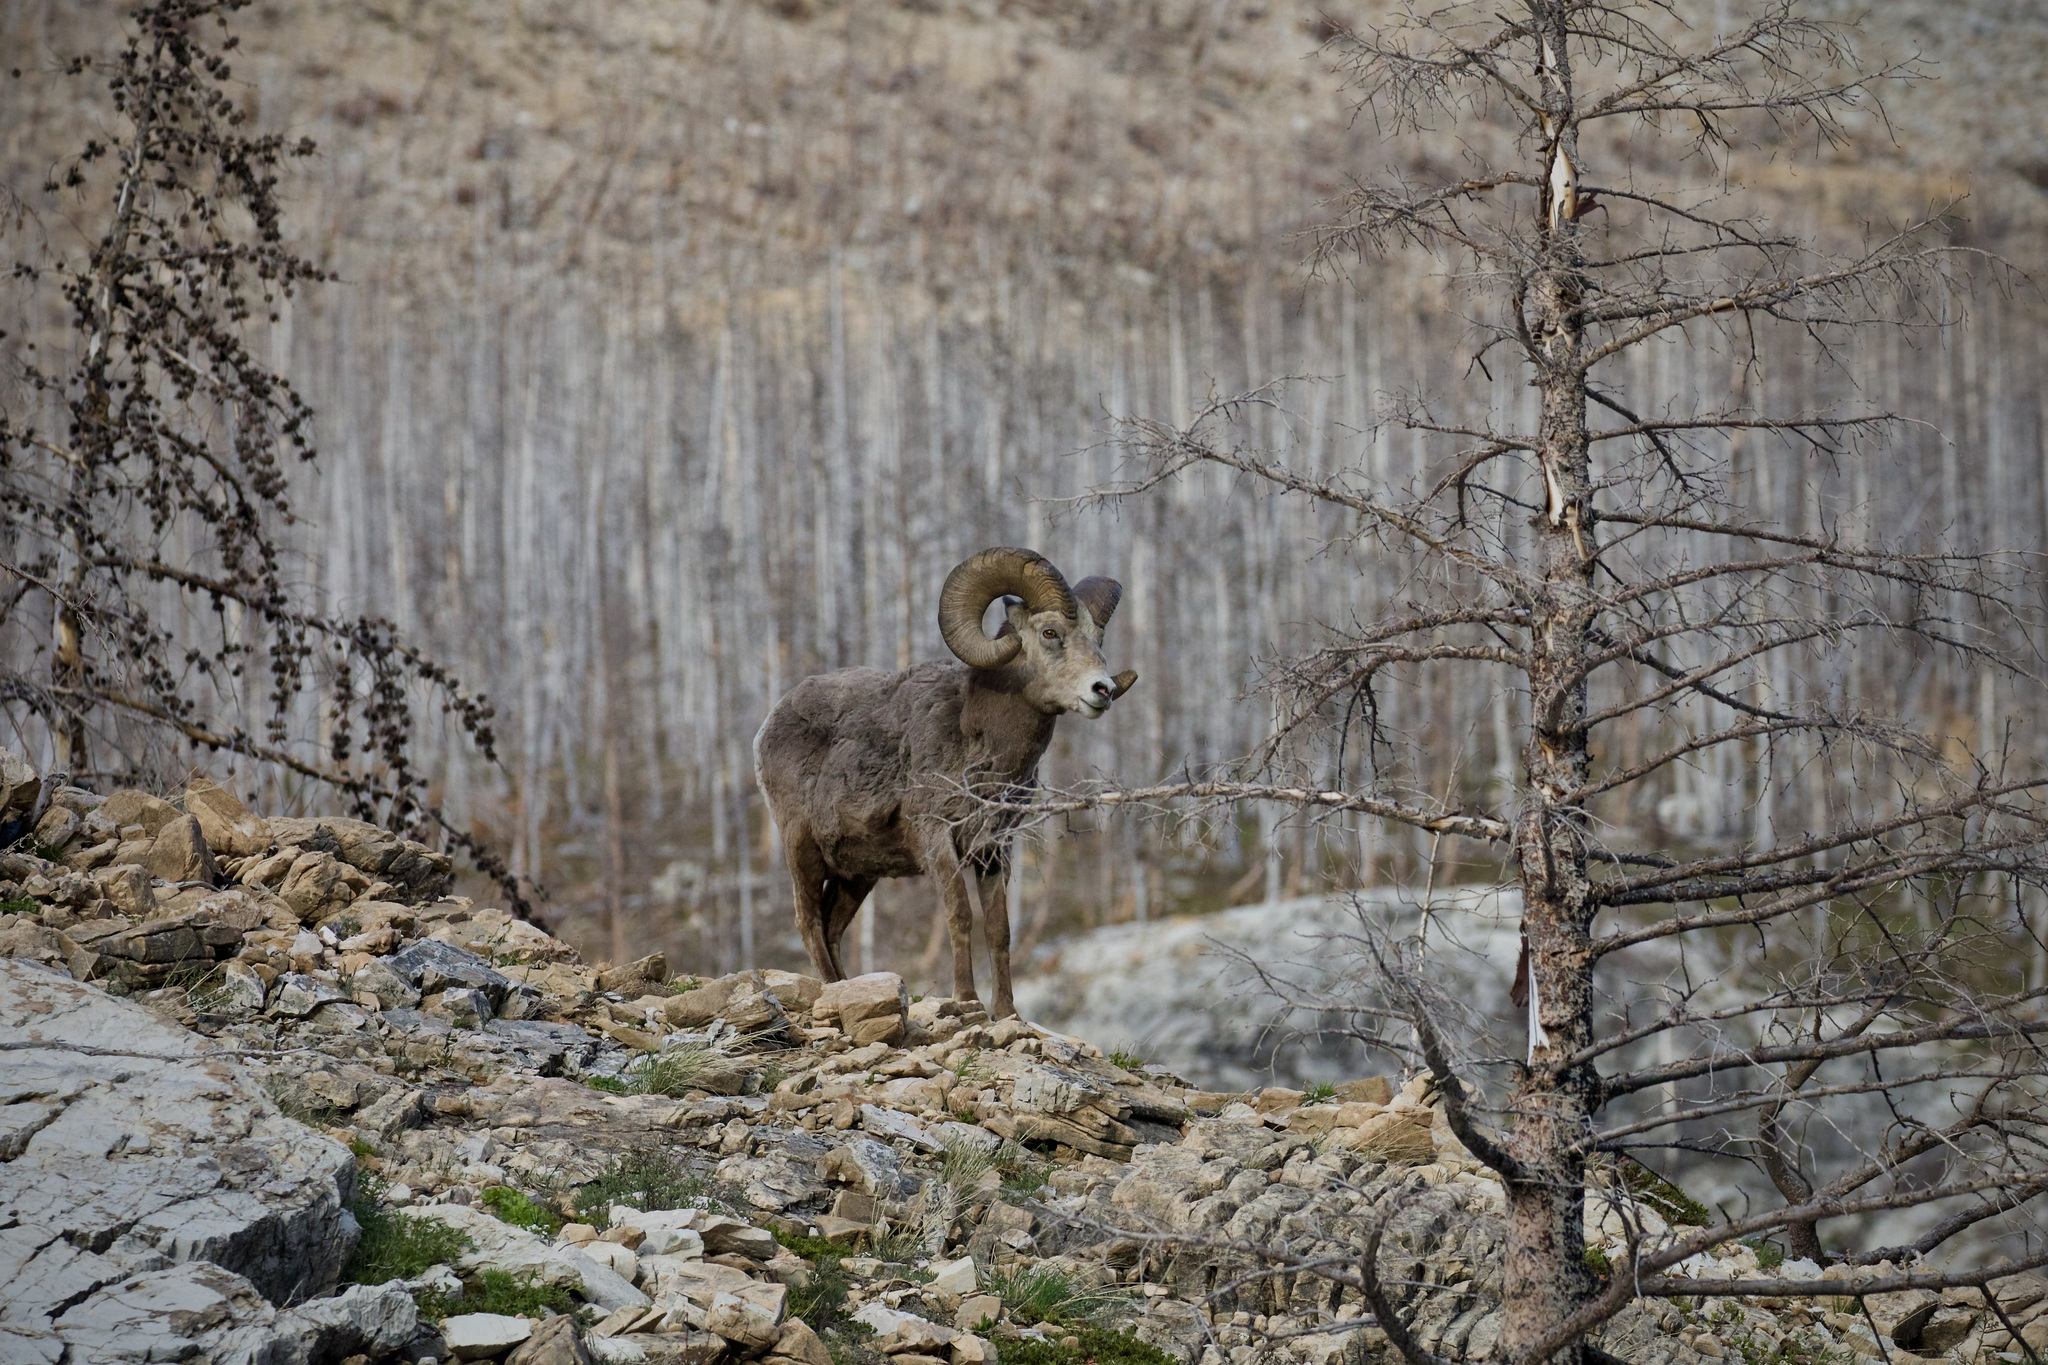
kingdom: Animalia
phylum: Chordata
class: Mammalia
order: Artiodactyla
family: Bovidae
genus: Ovis
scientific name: Ovis canadensis
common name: Bighorn sheep
